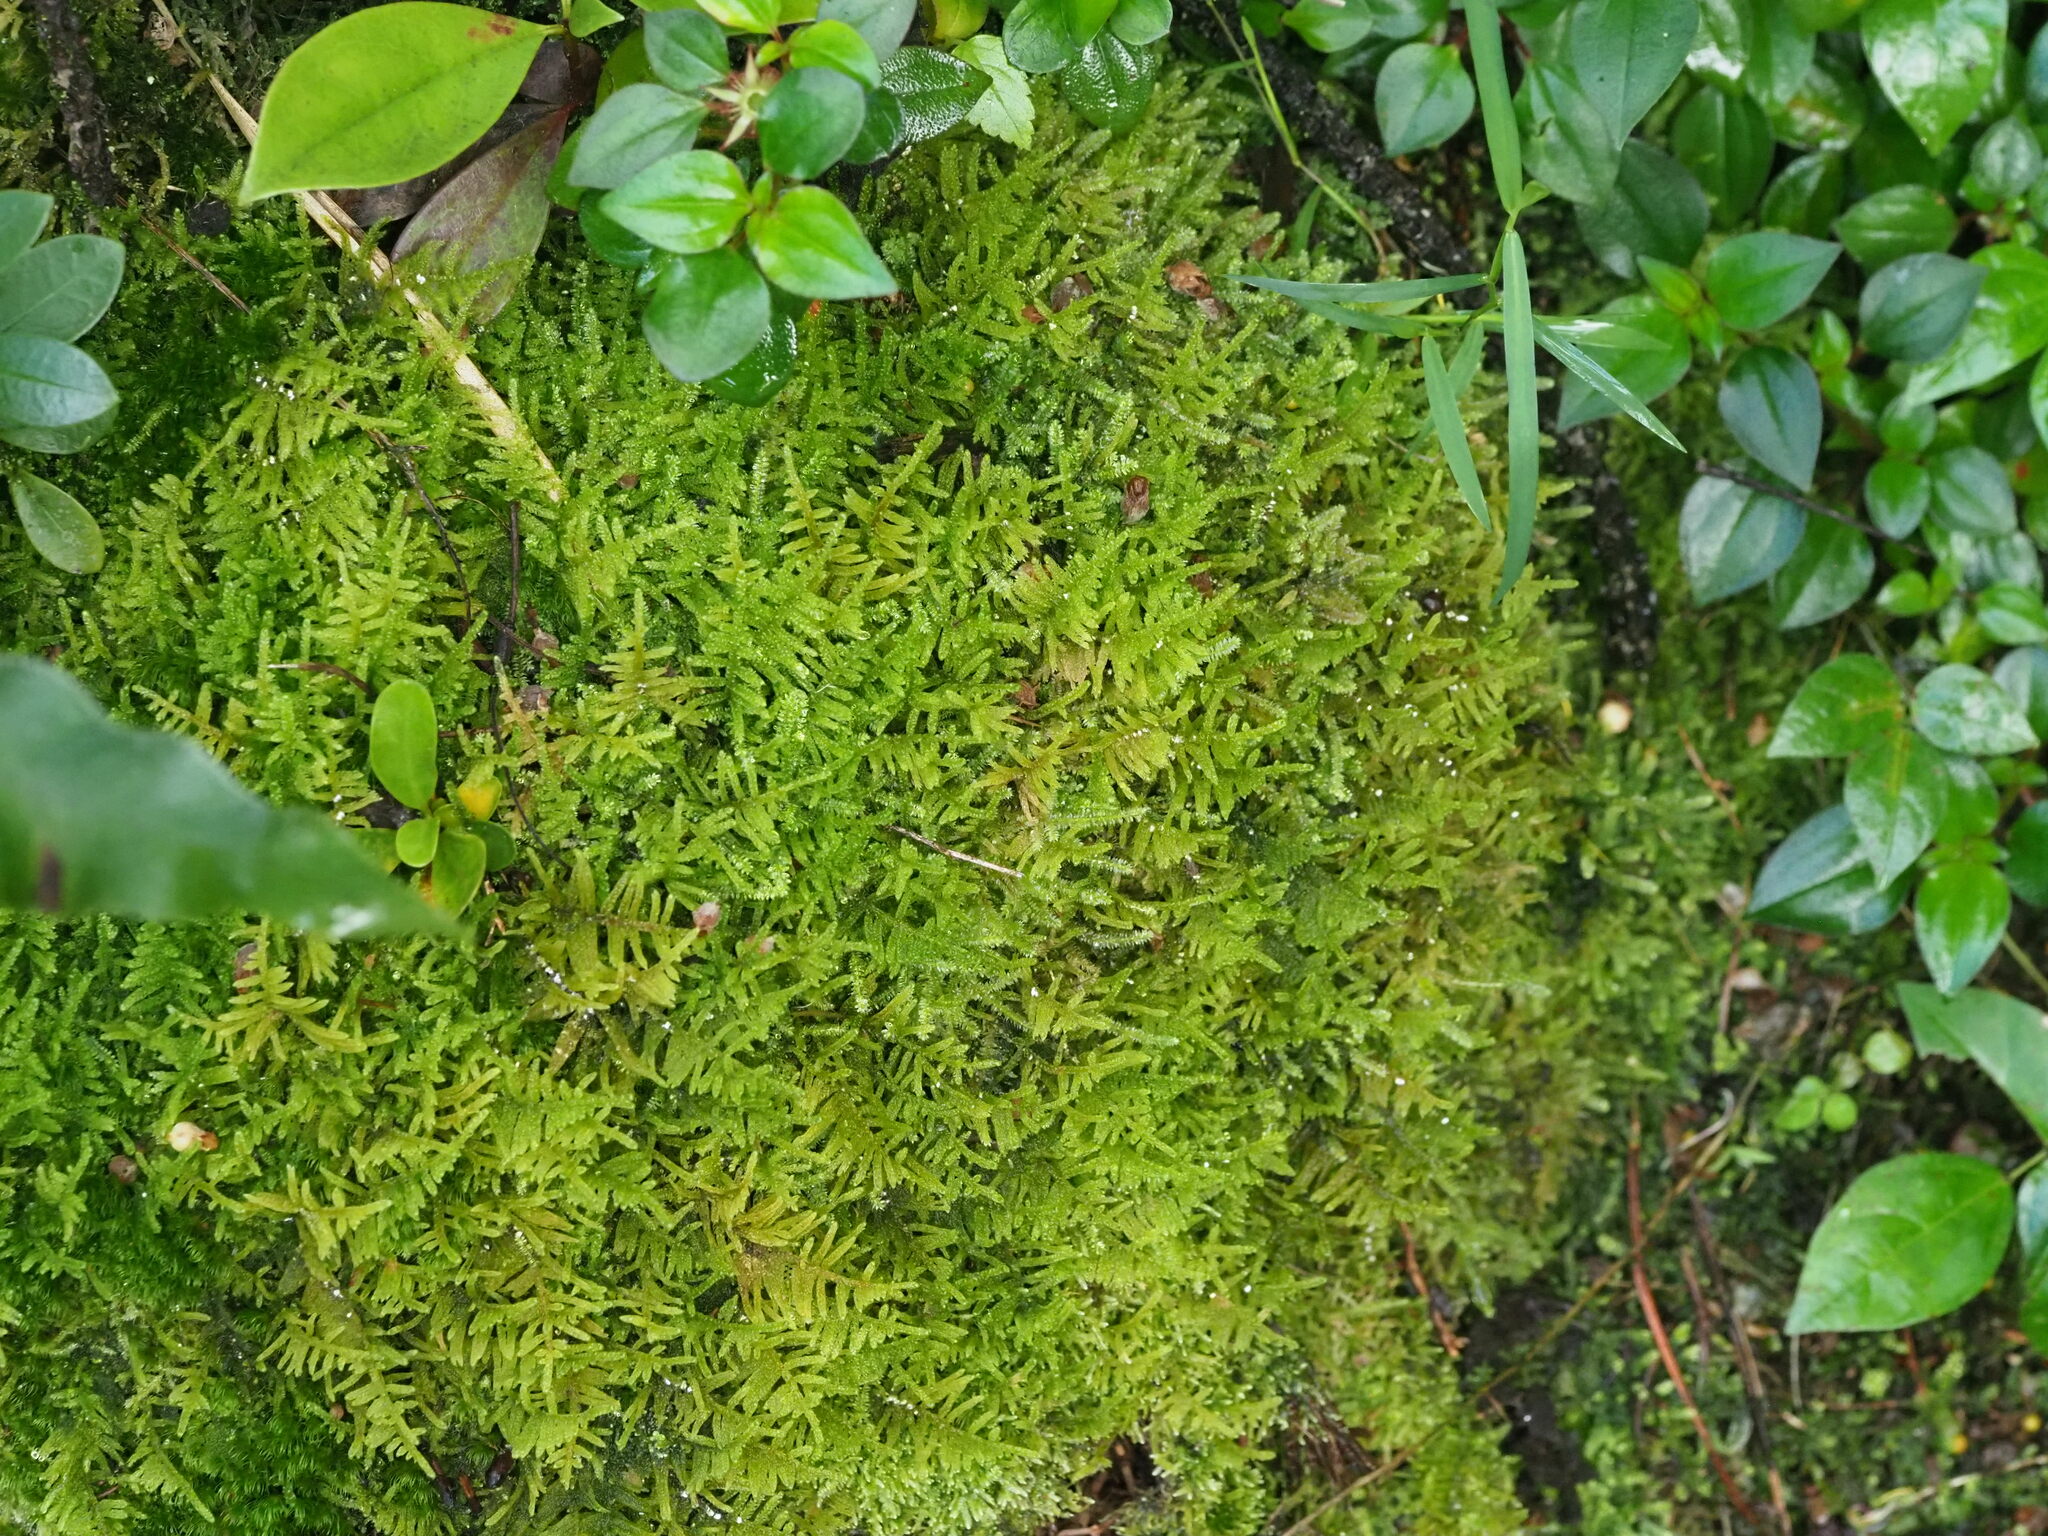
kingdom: Plantae
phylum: Bryophyta
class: Bryopsida
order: Hypnales
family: Hypnaceae
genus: Hypnum
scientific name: Hypnum plumaeforme
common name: Cypress-leaved plaitmoss
